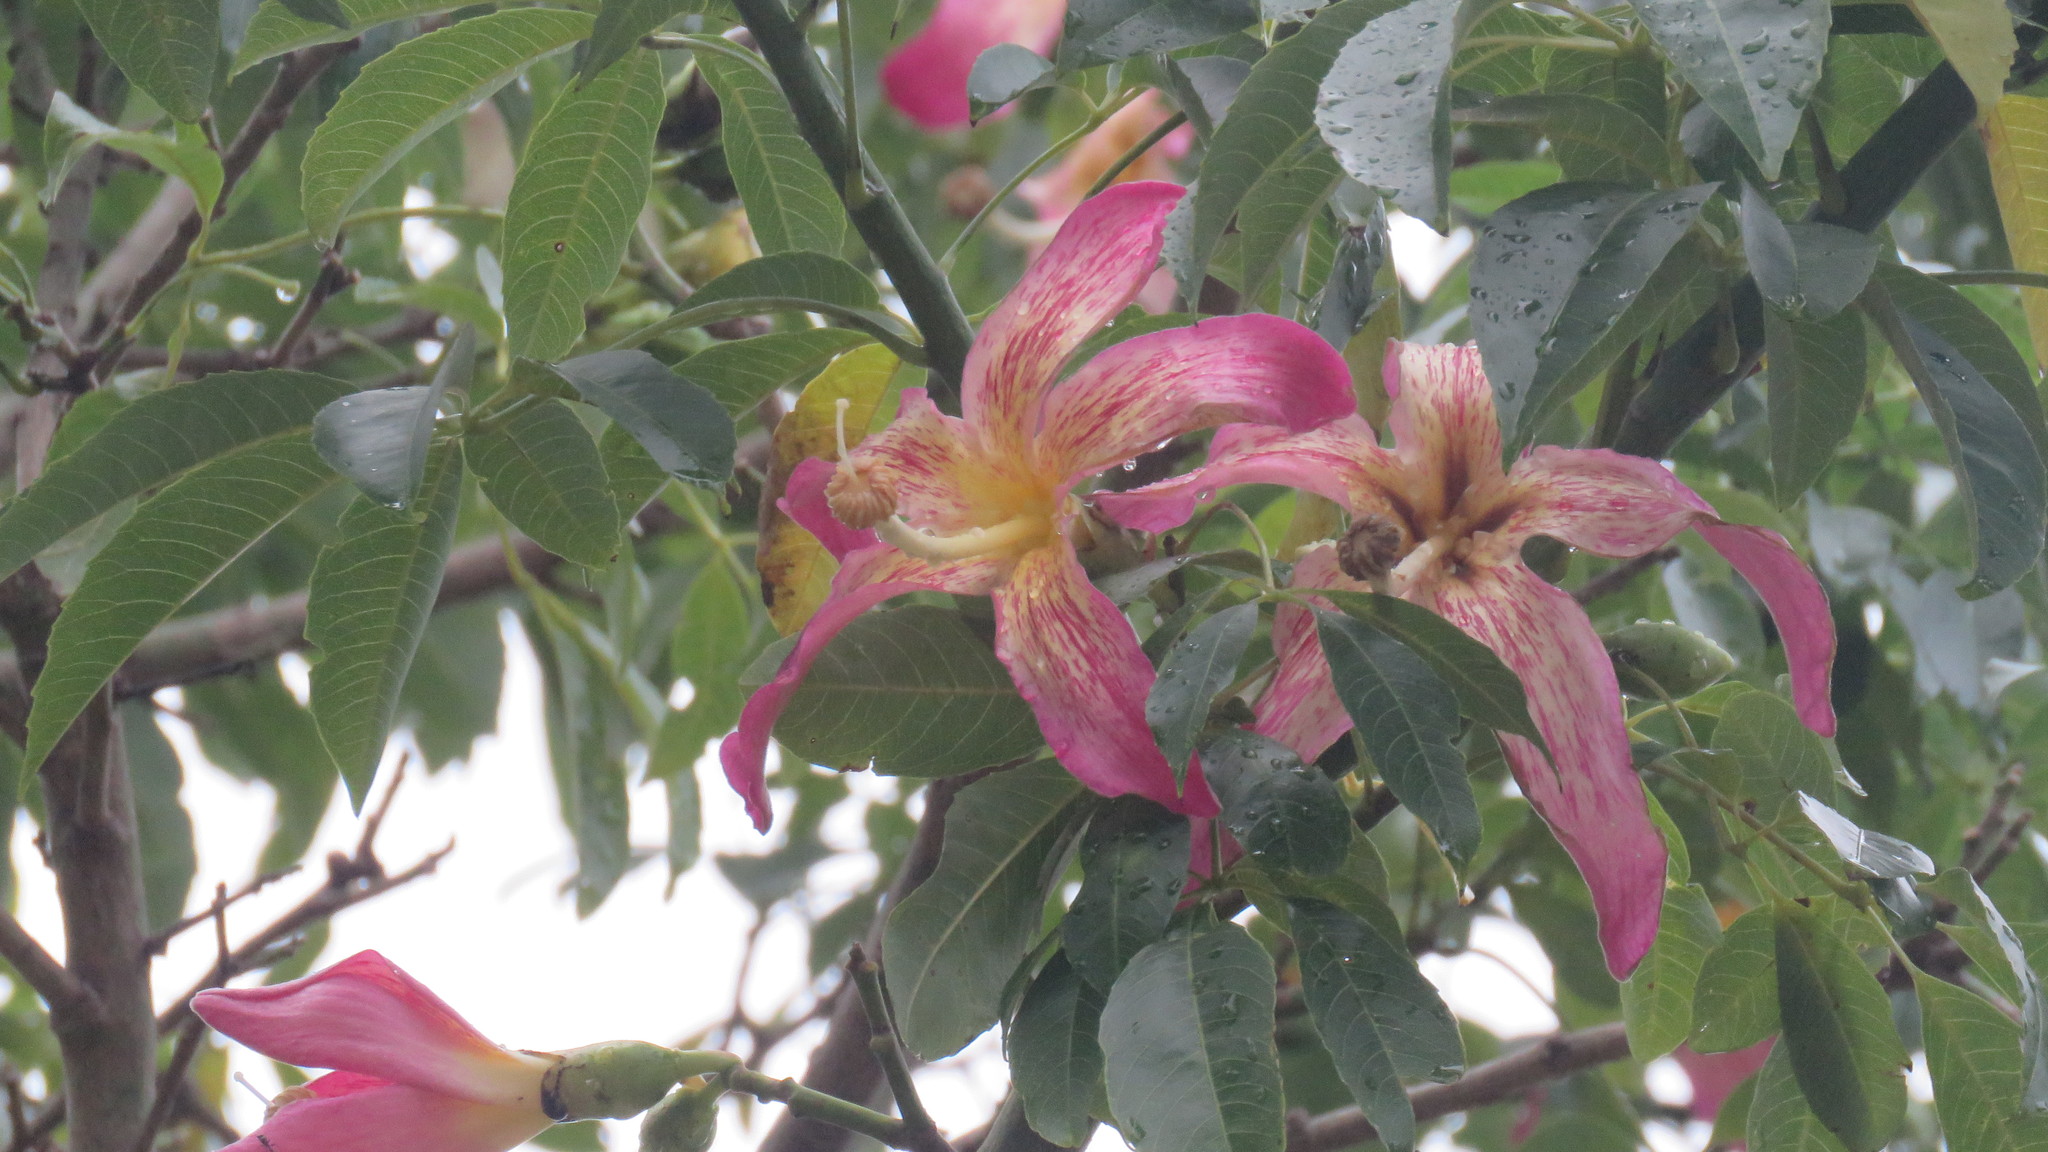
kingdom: Plantae
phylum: Tracheophyta
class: Magnoliopsida
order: Malvales
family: Malvaceae
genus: Ceiba
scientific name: Ceiba speciosa
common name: Silk-floss tree
